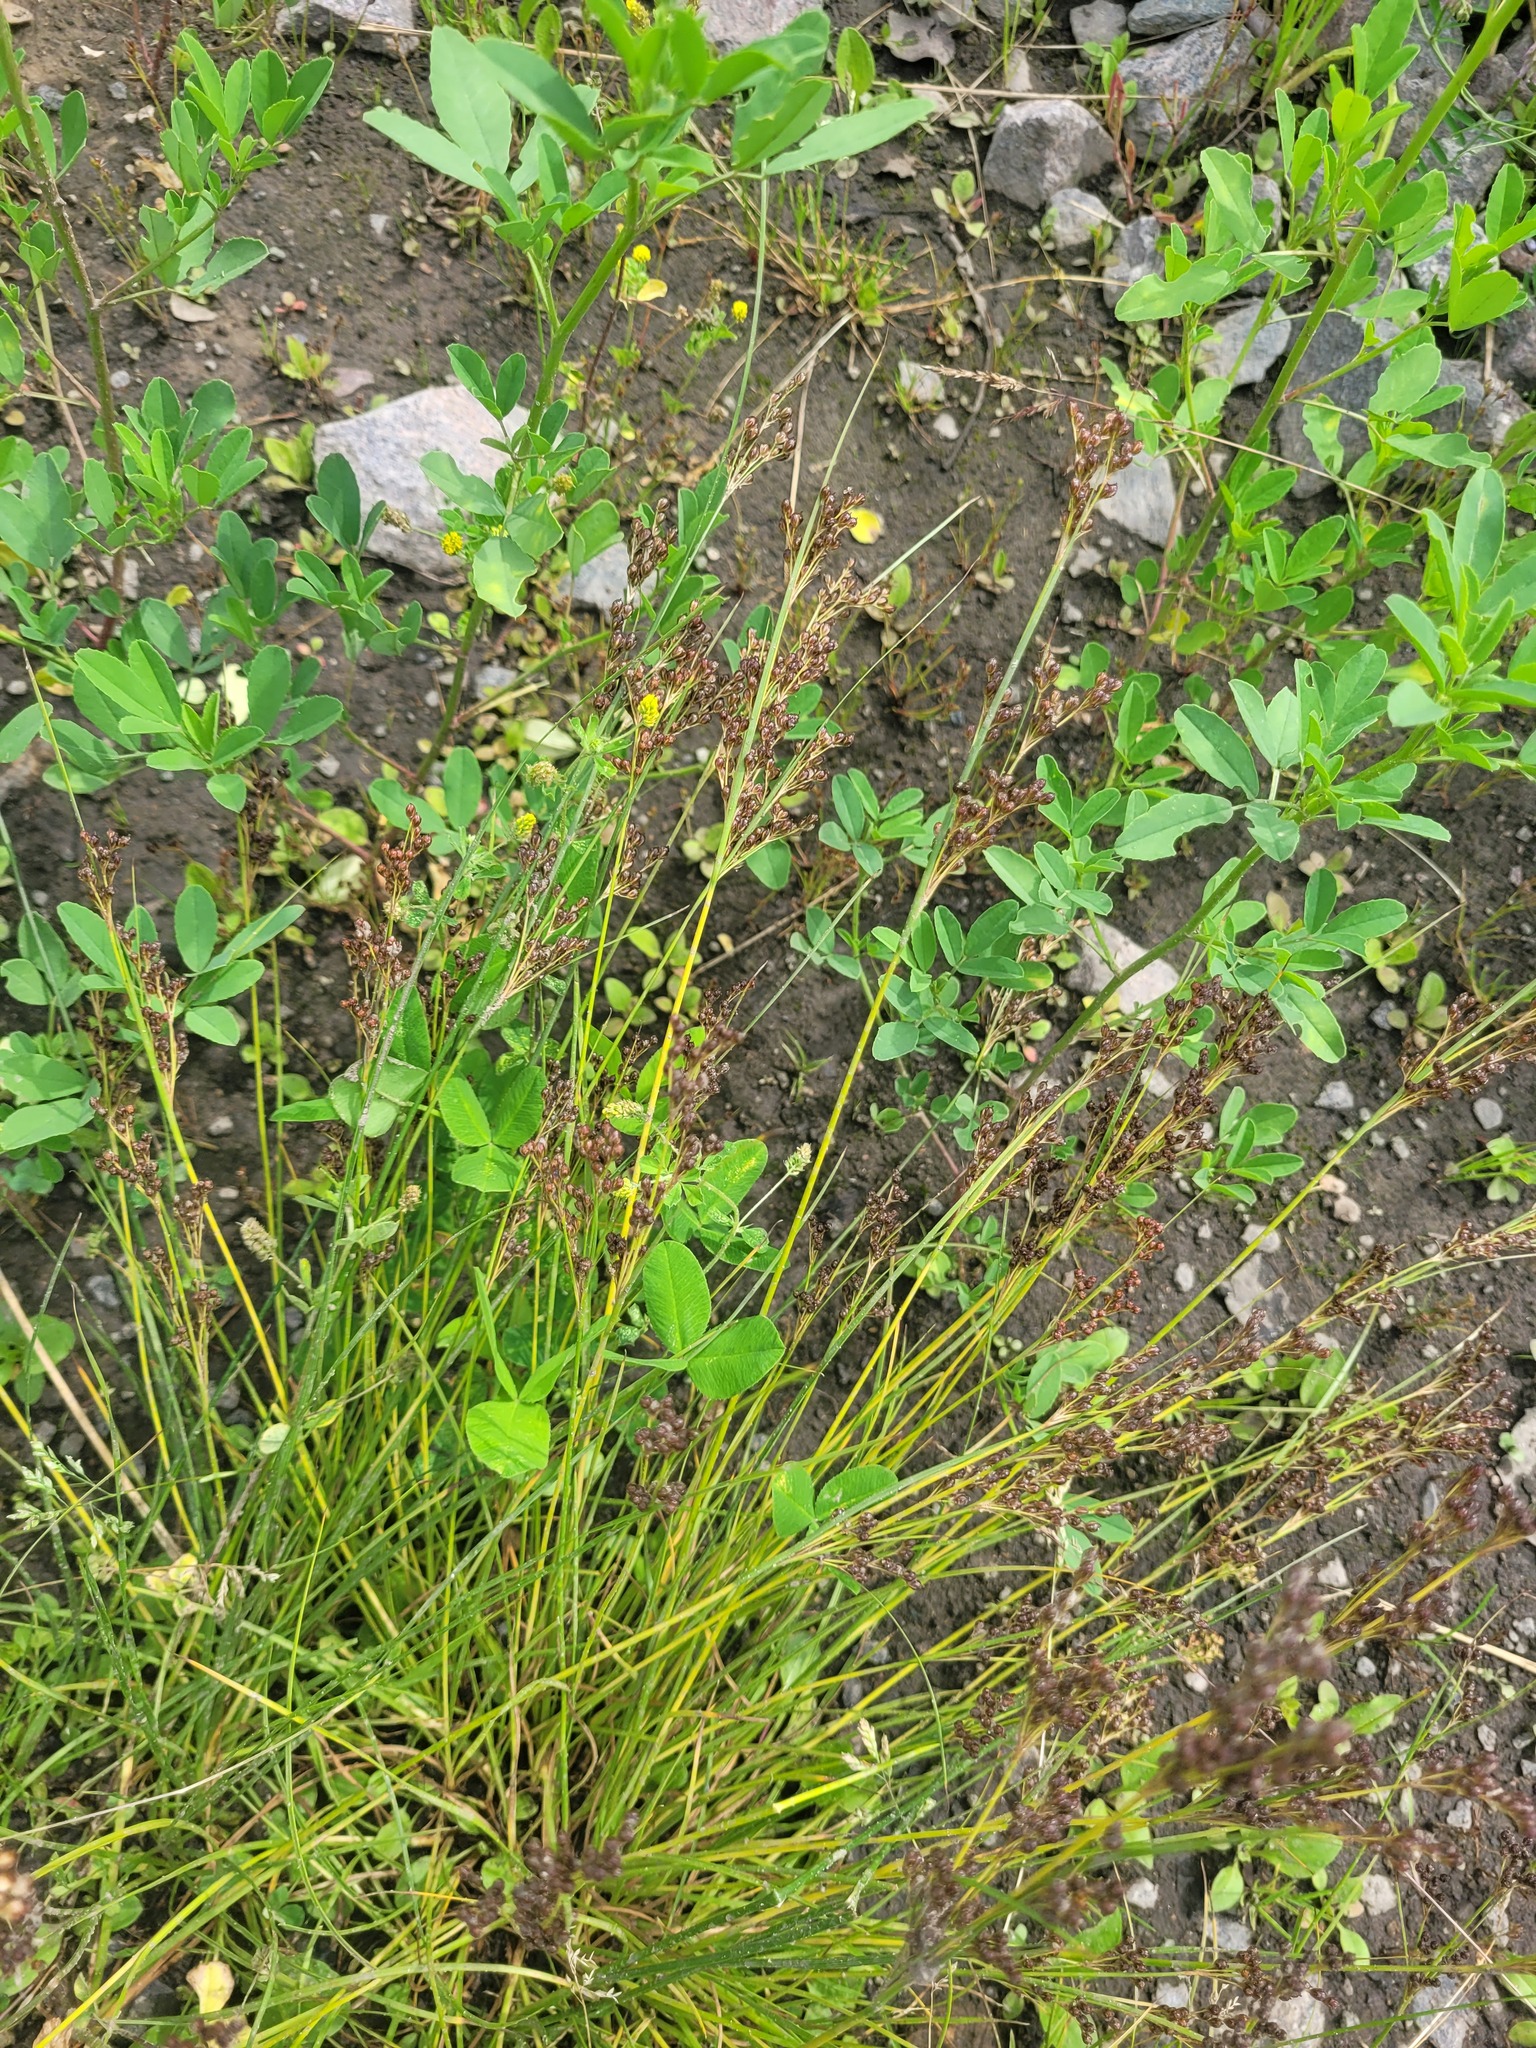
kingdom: Plantae
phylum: Tracheophyta
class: Liliopsida
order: Poales
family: Juncaceae
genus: Juncus
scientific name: Juncus compressus
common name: Round-fruited rush
